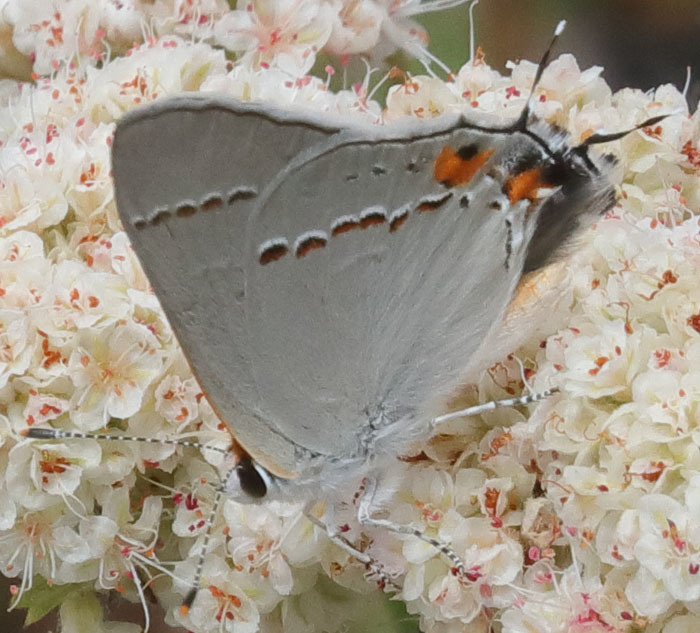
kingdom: Animalia
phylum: Arthropoda
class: Insecta
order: Lepidoptera
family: Lycaenidae
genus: Strymon
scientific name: Strymon melinus
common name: Gray hairstreak
